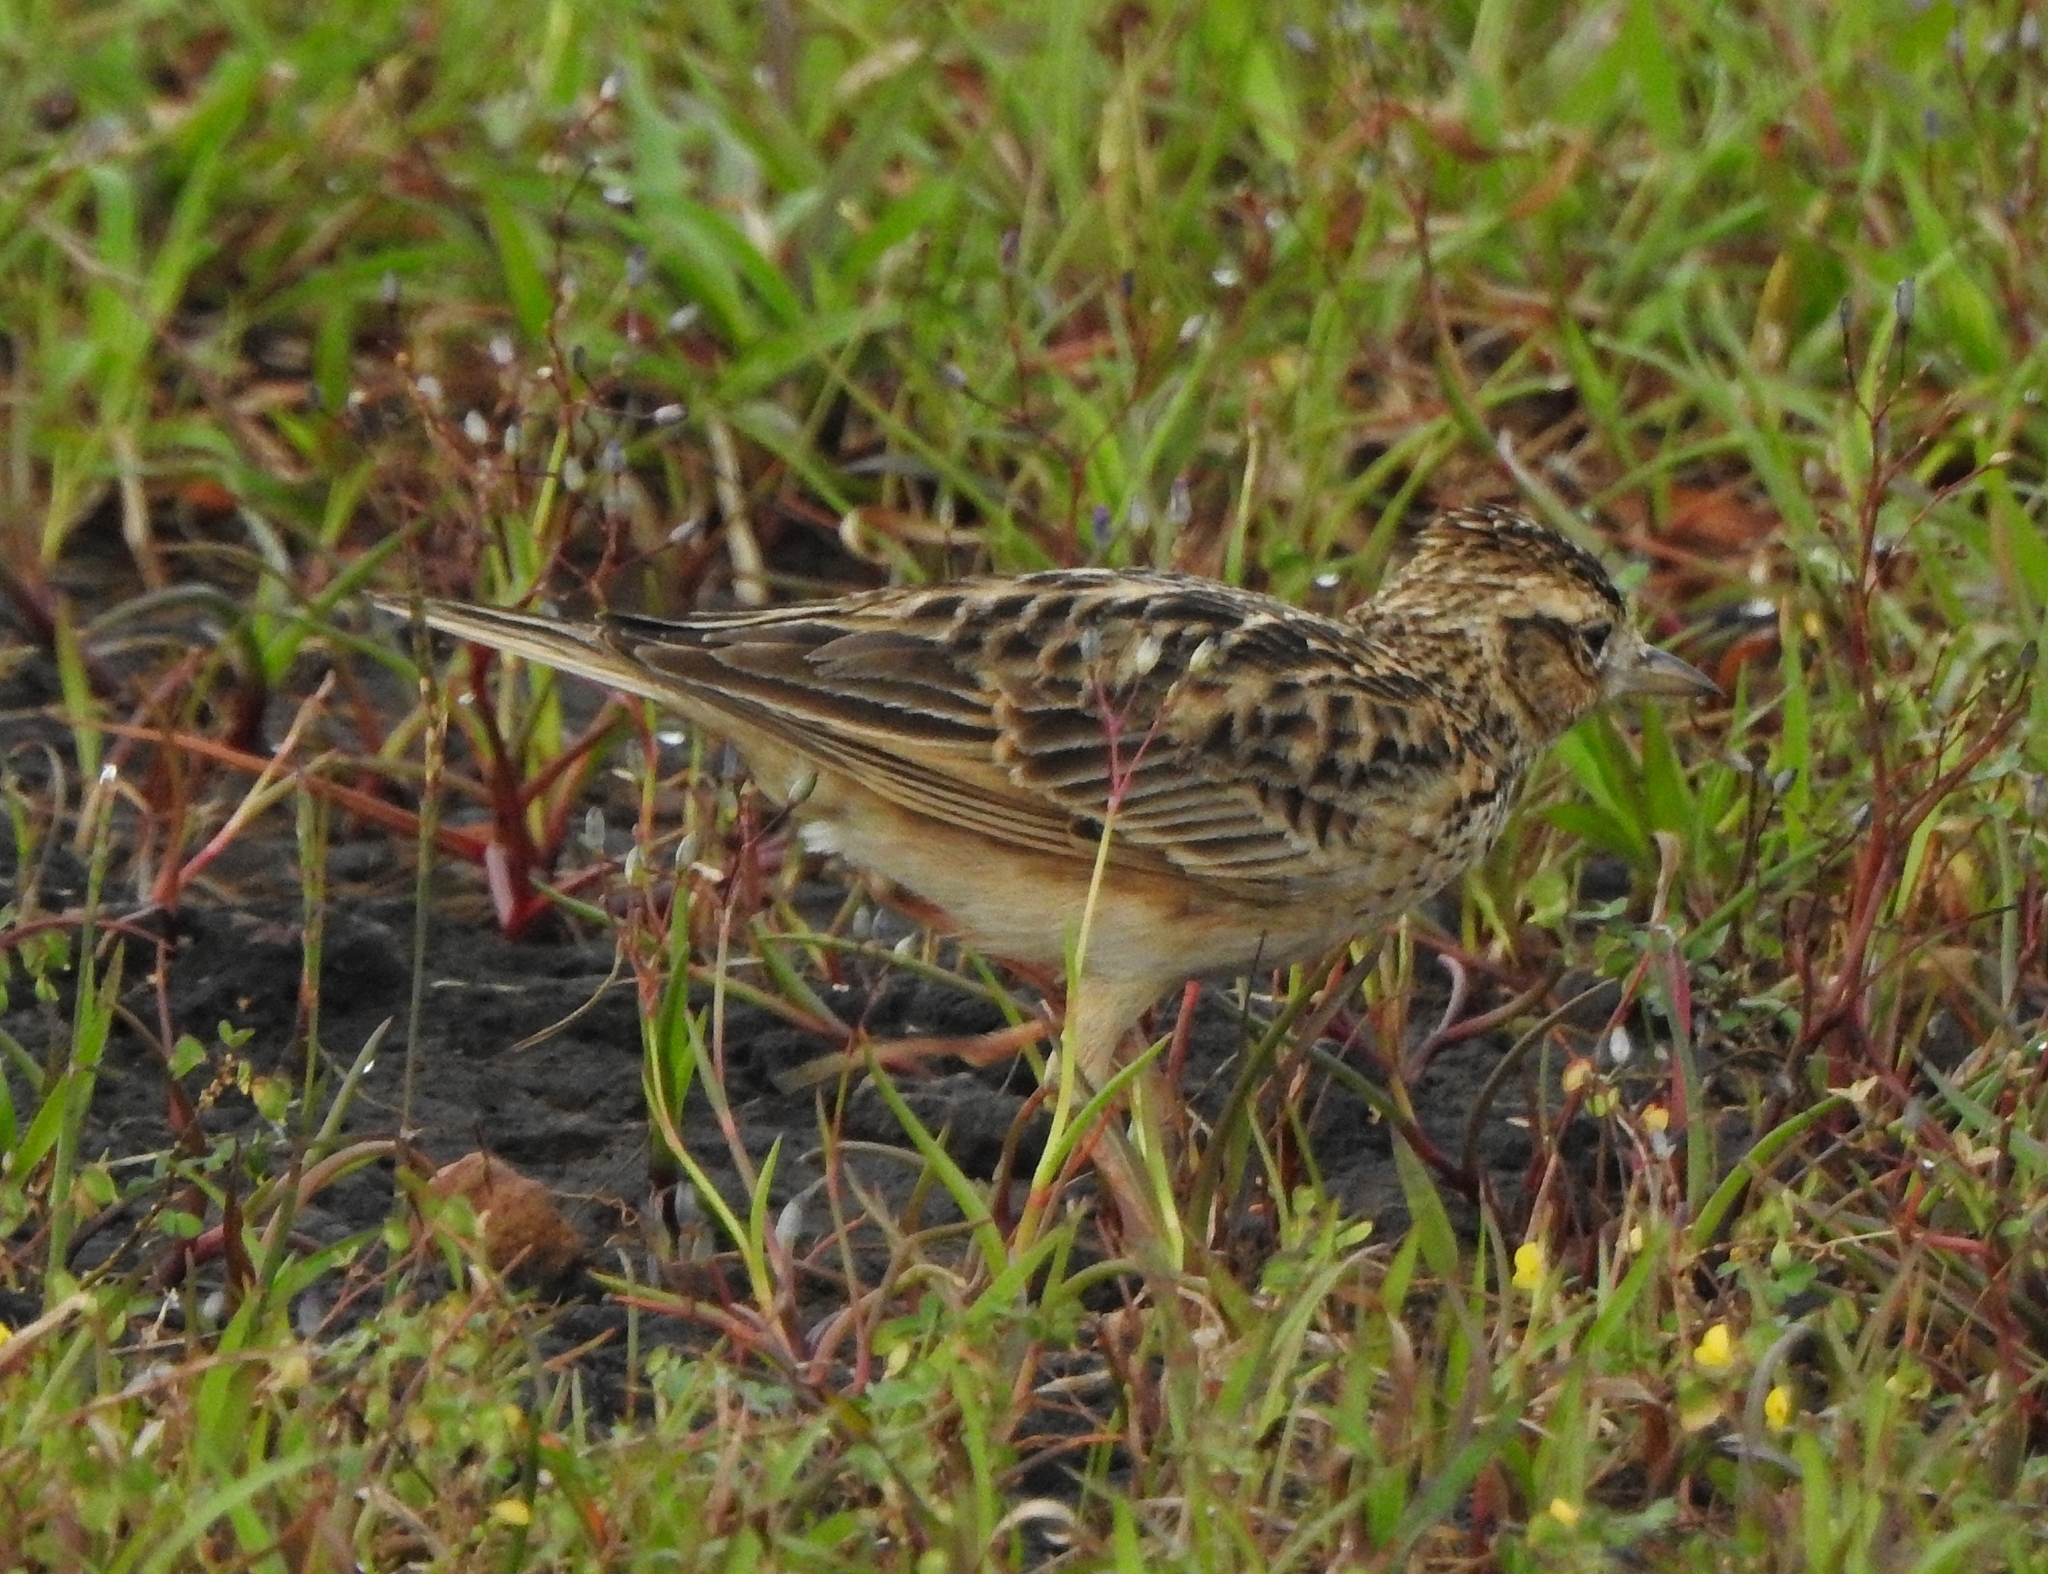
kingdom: Animalia
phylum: Chordata
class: Aves
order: Passeriformes
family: Alaudidae
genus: Alauda
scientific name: Alauda gulgula
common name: Oriental skylark
